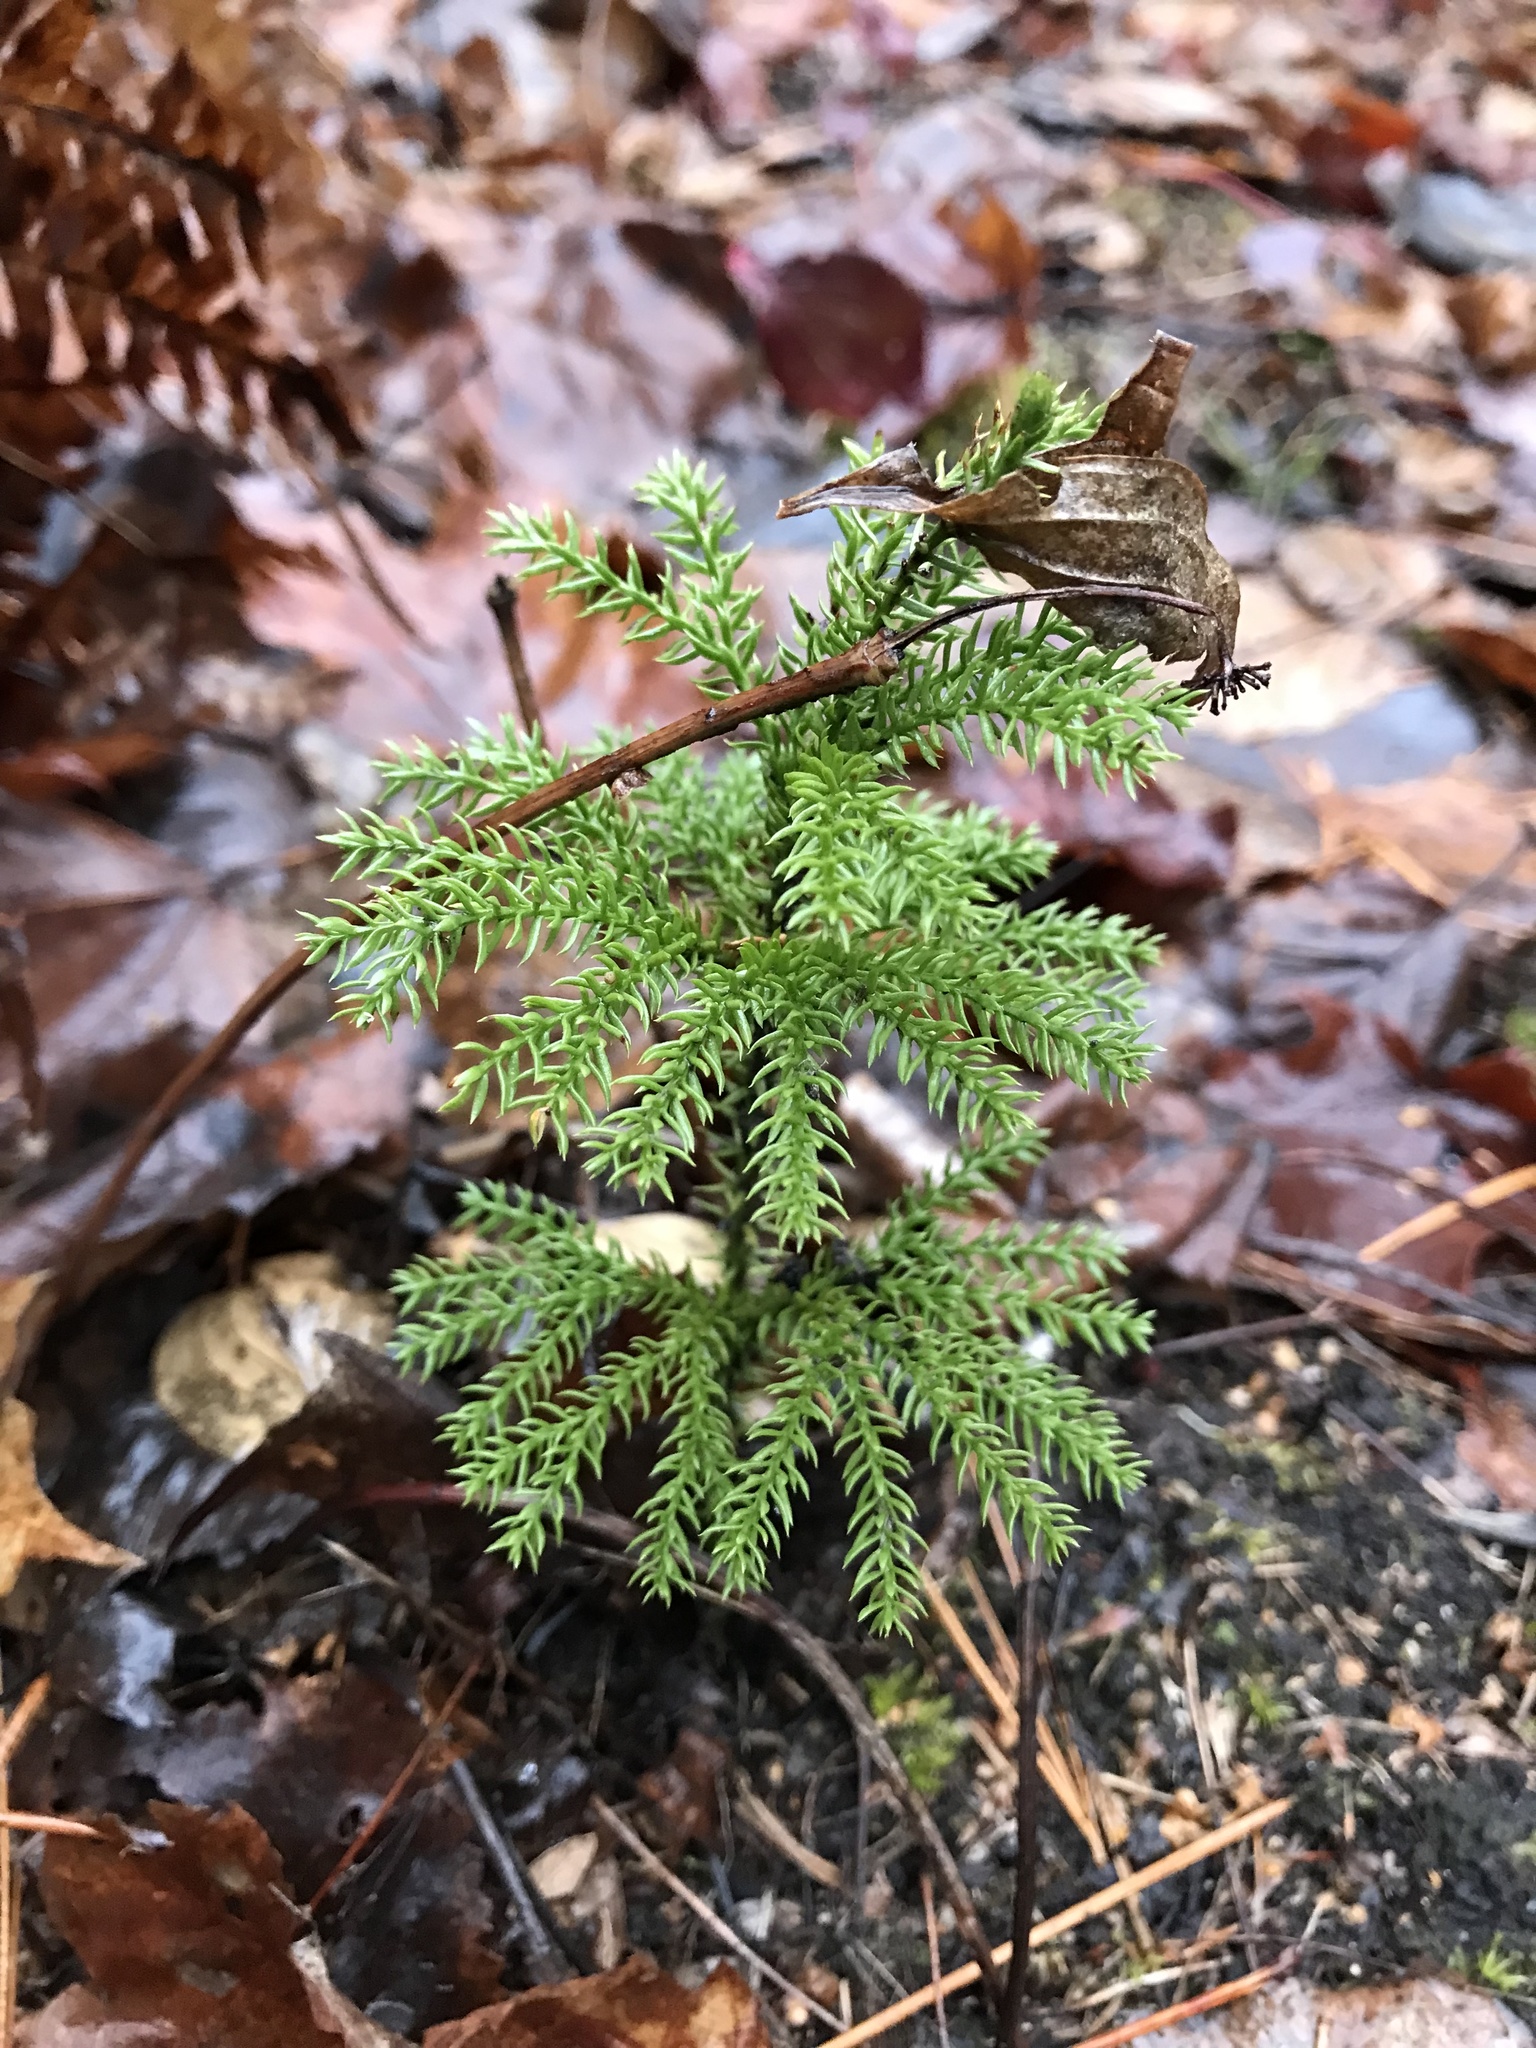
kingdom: Plantae
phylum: Tracheophyta
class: Lycopodiopsida
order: Lycopodiales
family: Lycopodiaceae
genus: Dendrolycopodium
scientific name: Dendrolycopodium dendroideum
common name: Northern tree-clubmoss
